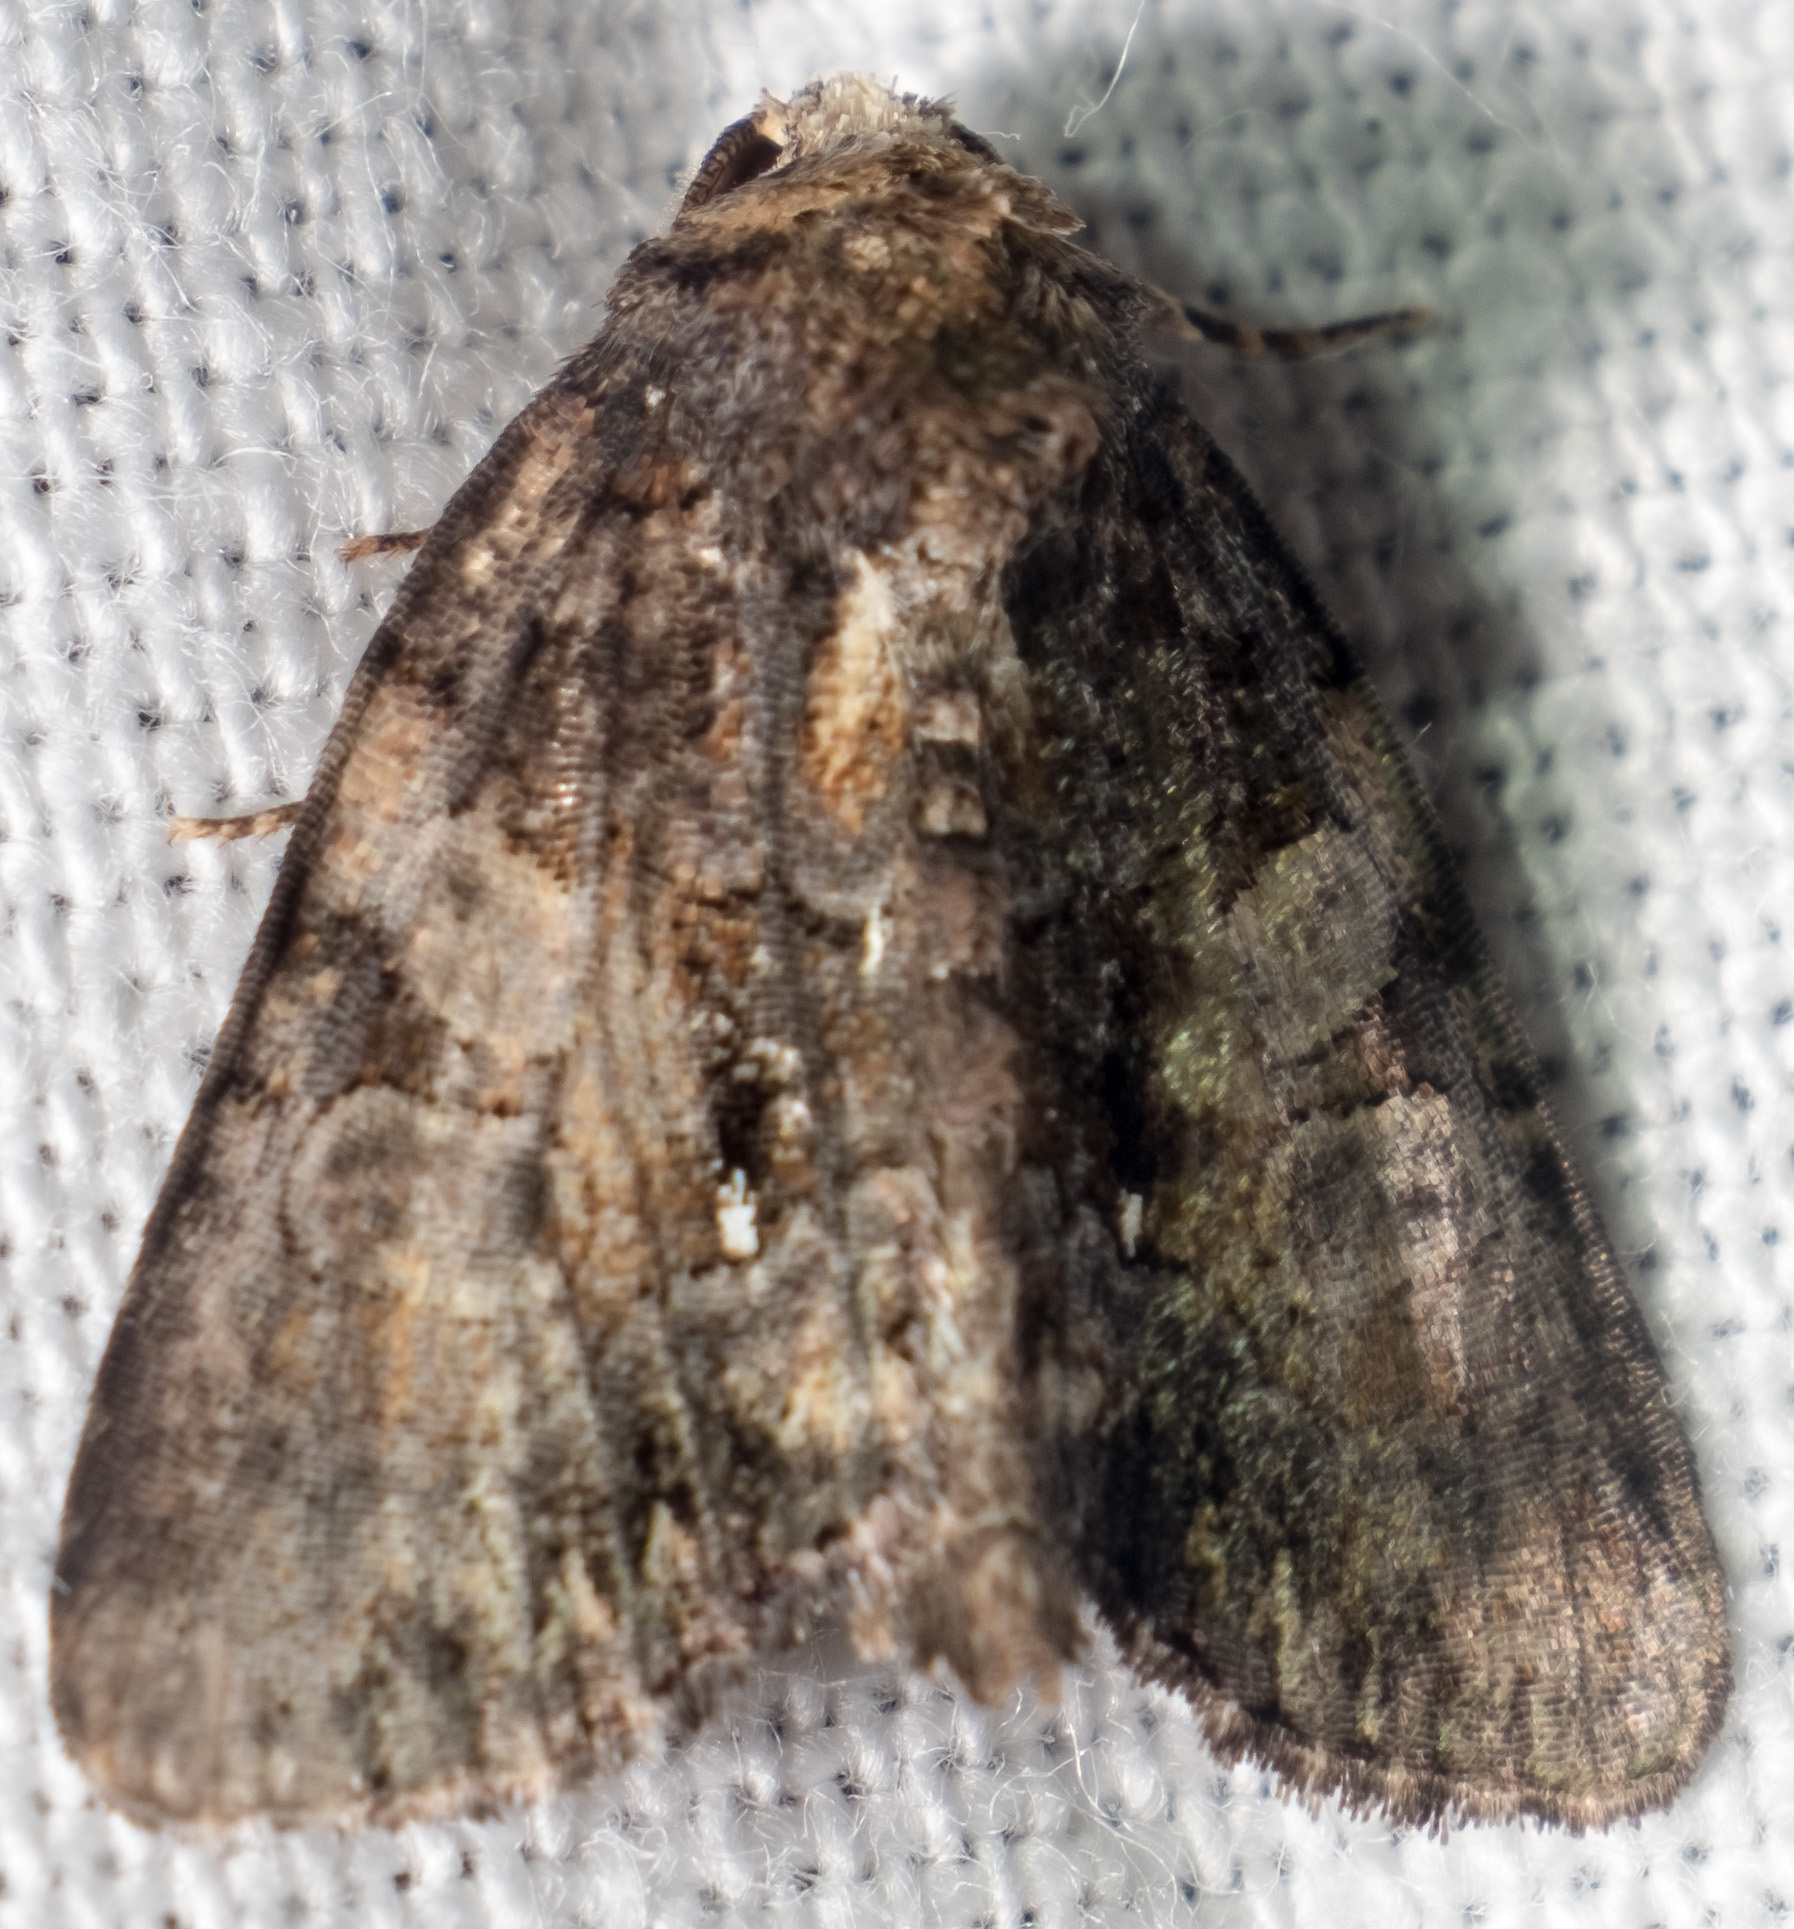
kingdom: Animalia
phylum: Arthropoda
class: Insecta
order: Lepidoptera
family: Noctuidae
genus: Chytonix
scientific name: Chytonix palliatricula
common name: Cloaked marvel
